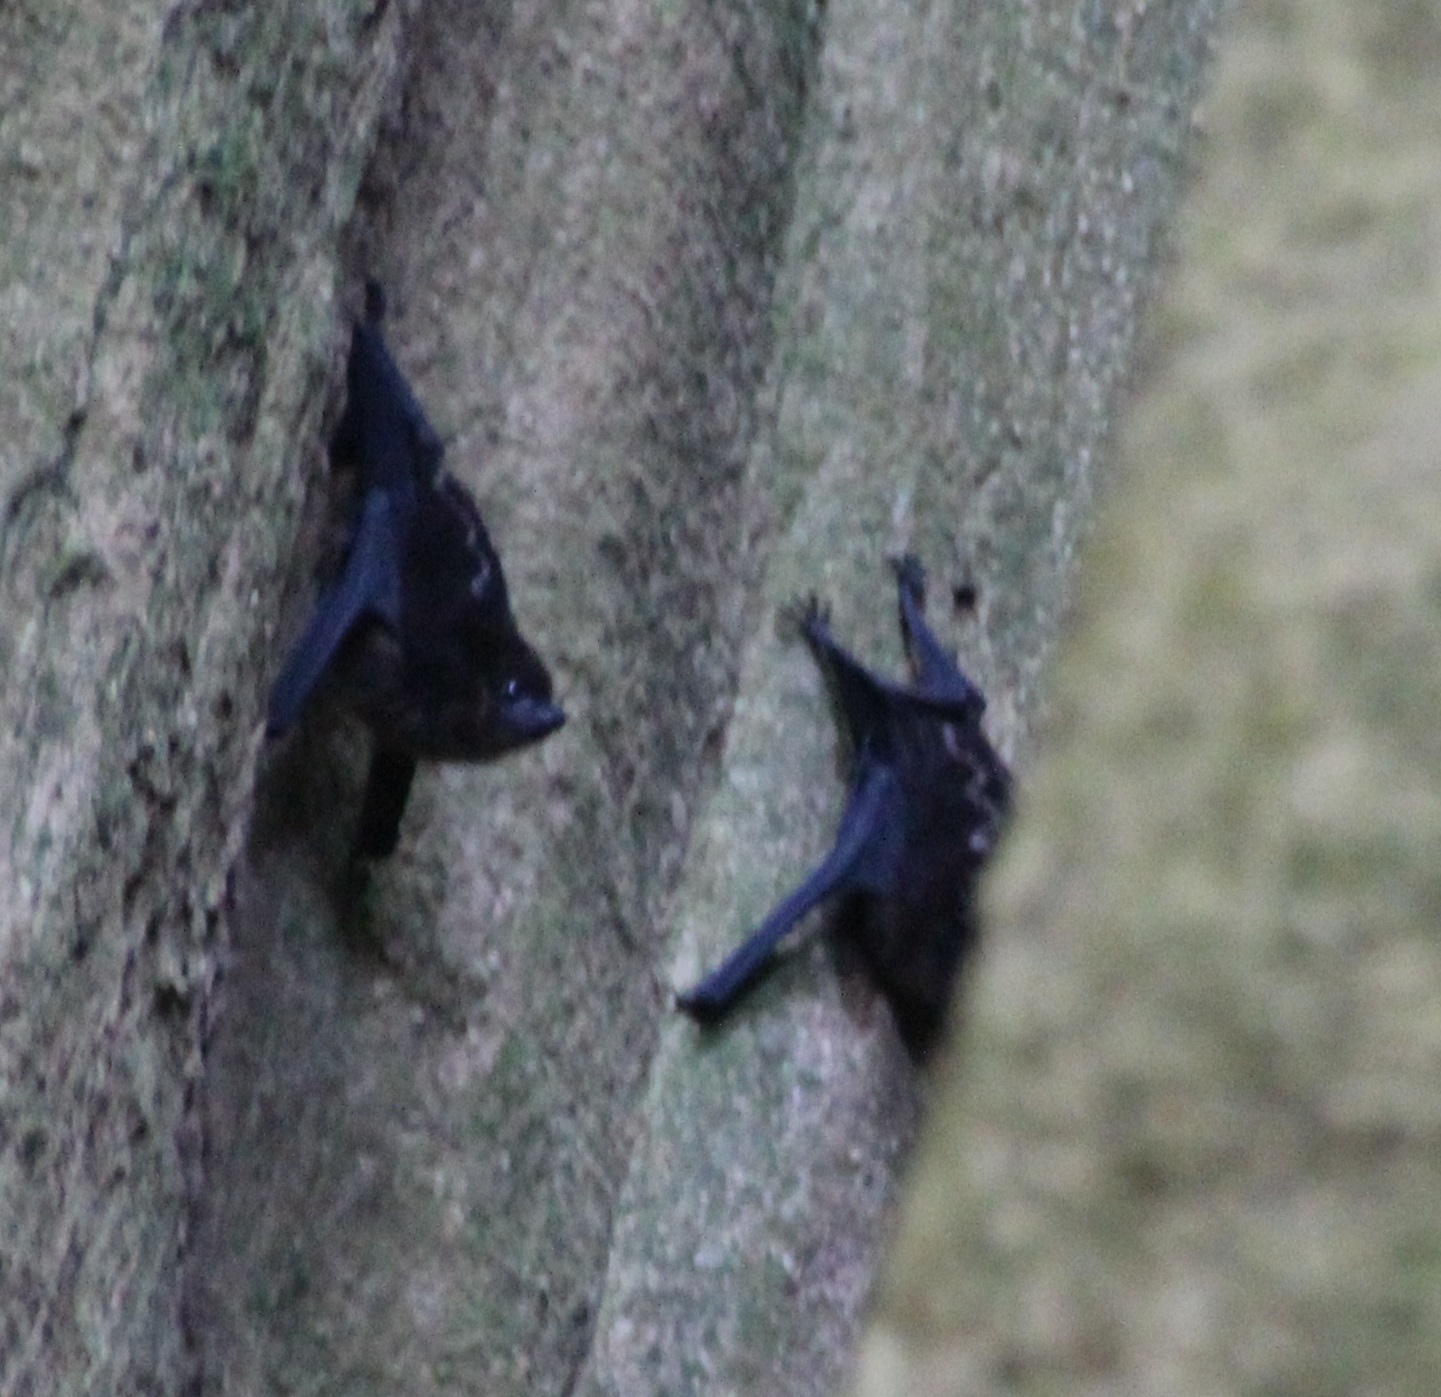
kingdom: Animalia
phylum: Chordata
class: Mammalia
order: Chiroptera
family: Emballonuridae
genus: Saccopteryx
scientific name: Saccopteryx bilineata
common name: Greater sac-winged bat
